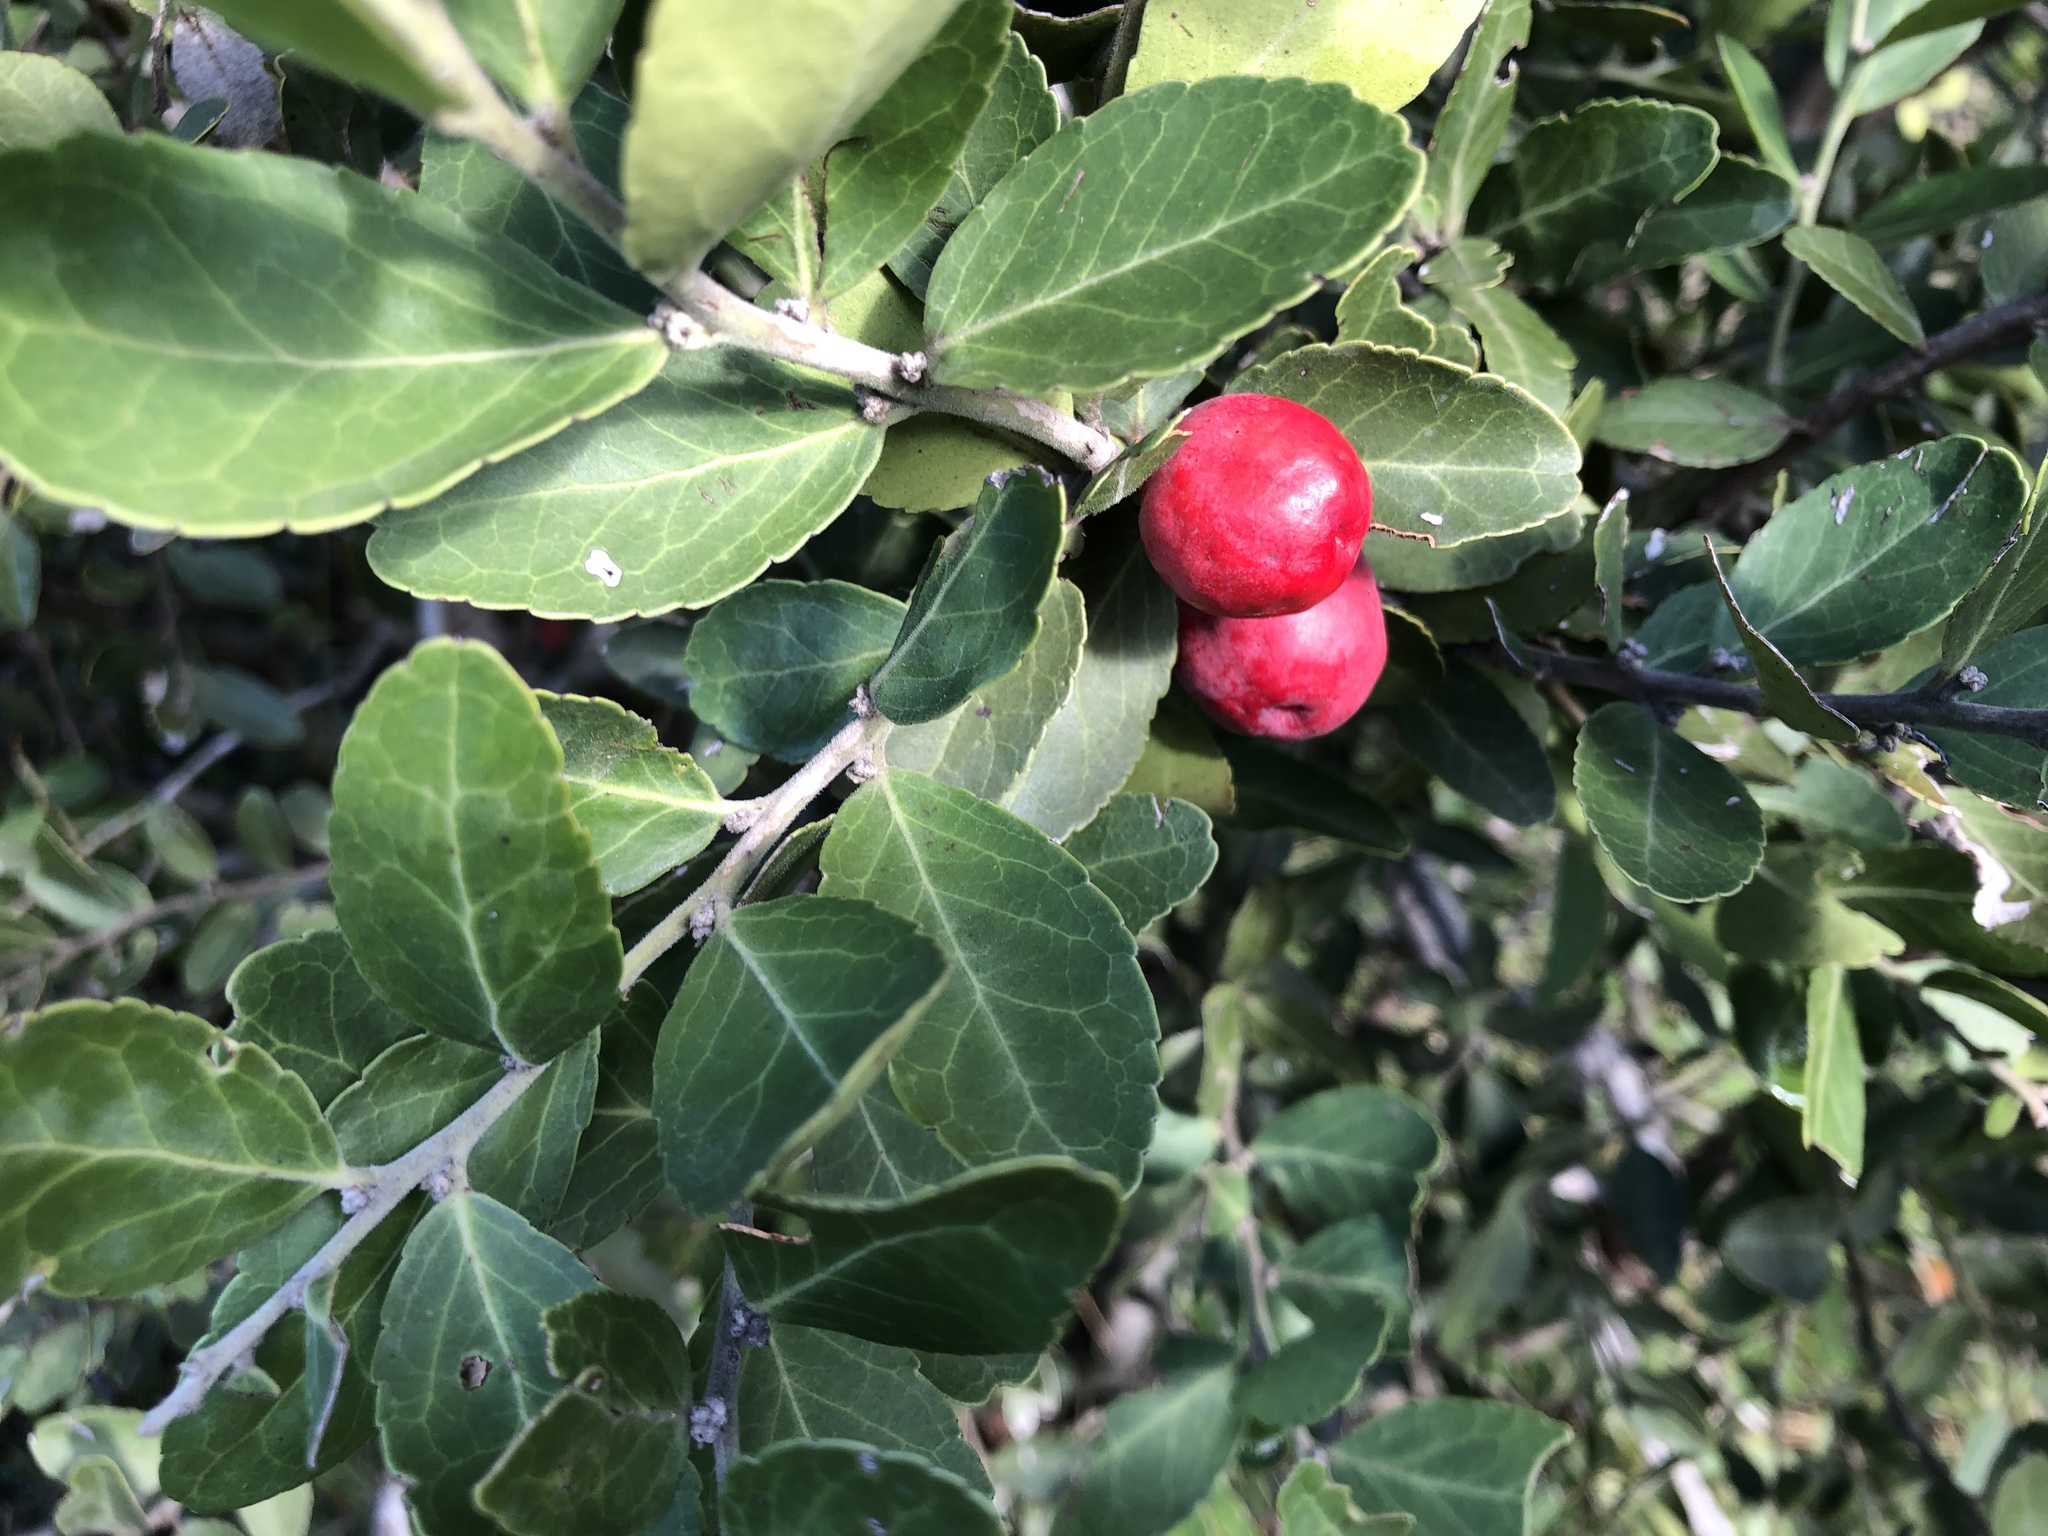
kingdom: Plantae
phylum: Tracheophyta
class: Magnoliopsida
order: Celastrales
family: Celastraceae
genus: Mystroxylon
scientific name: Mystroxylon aethiopicum
